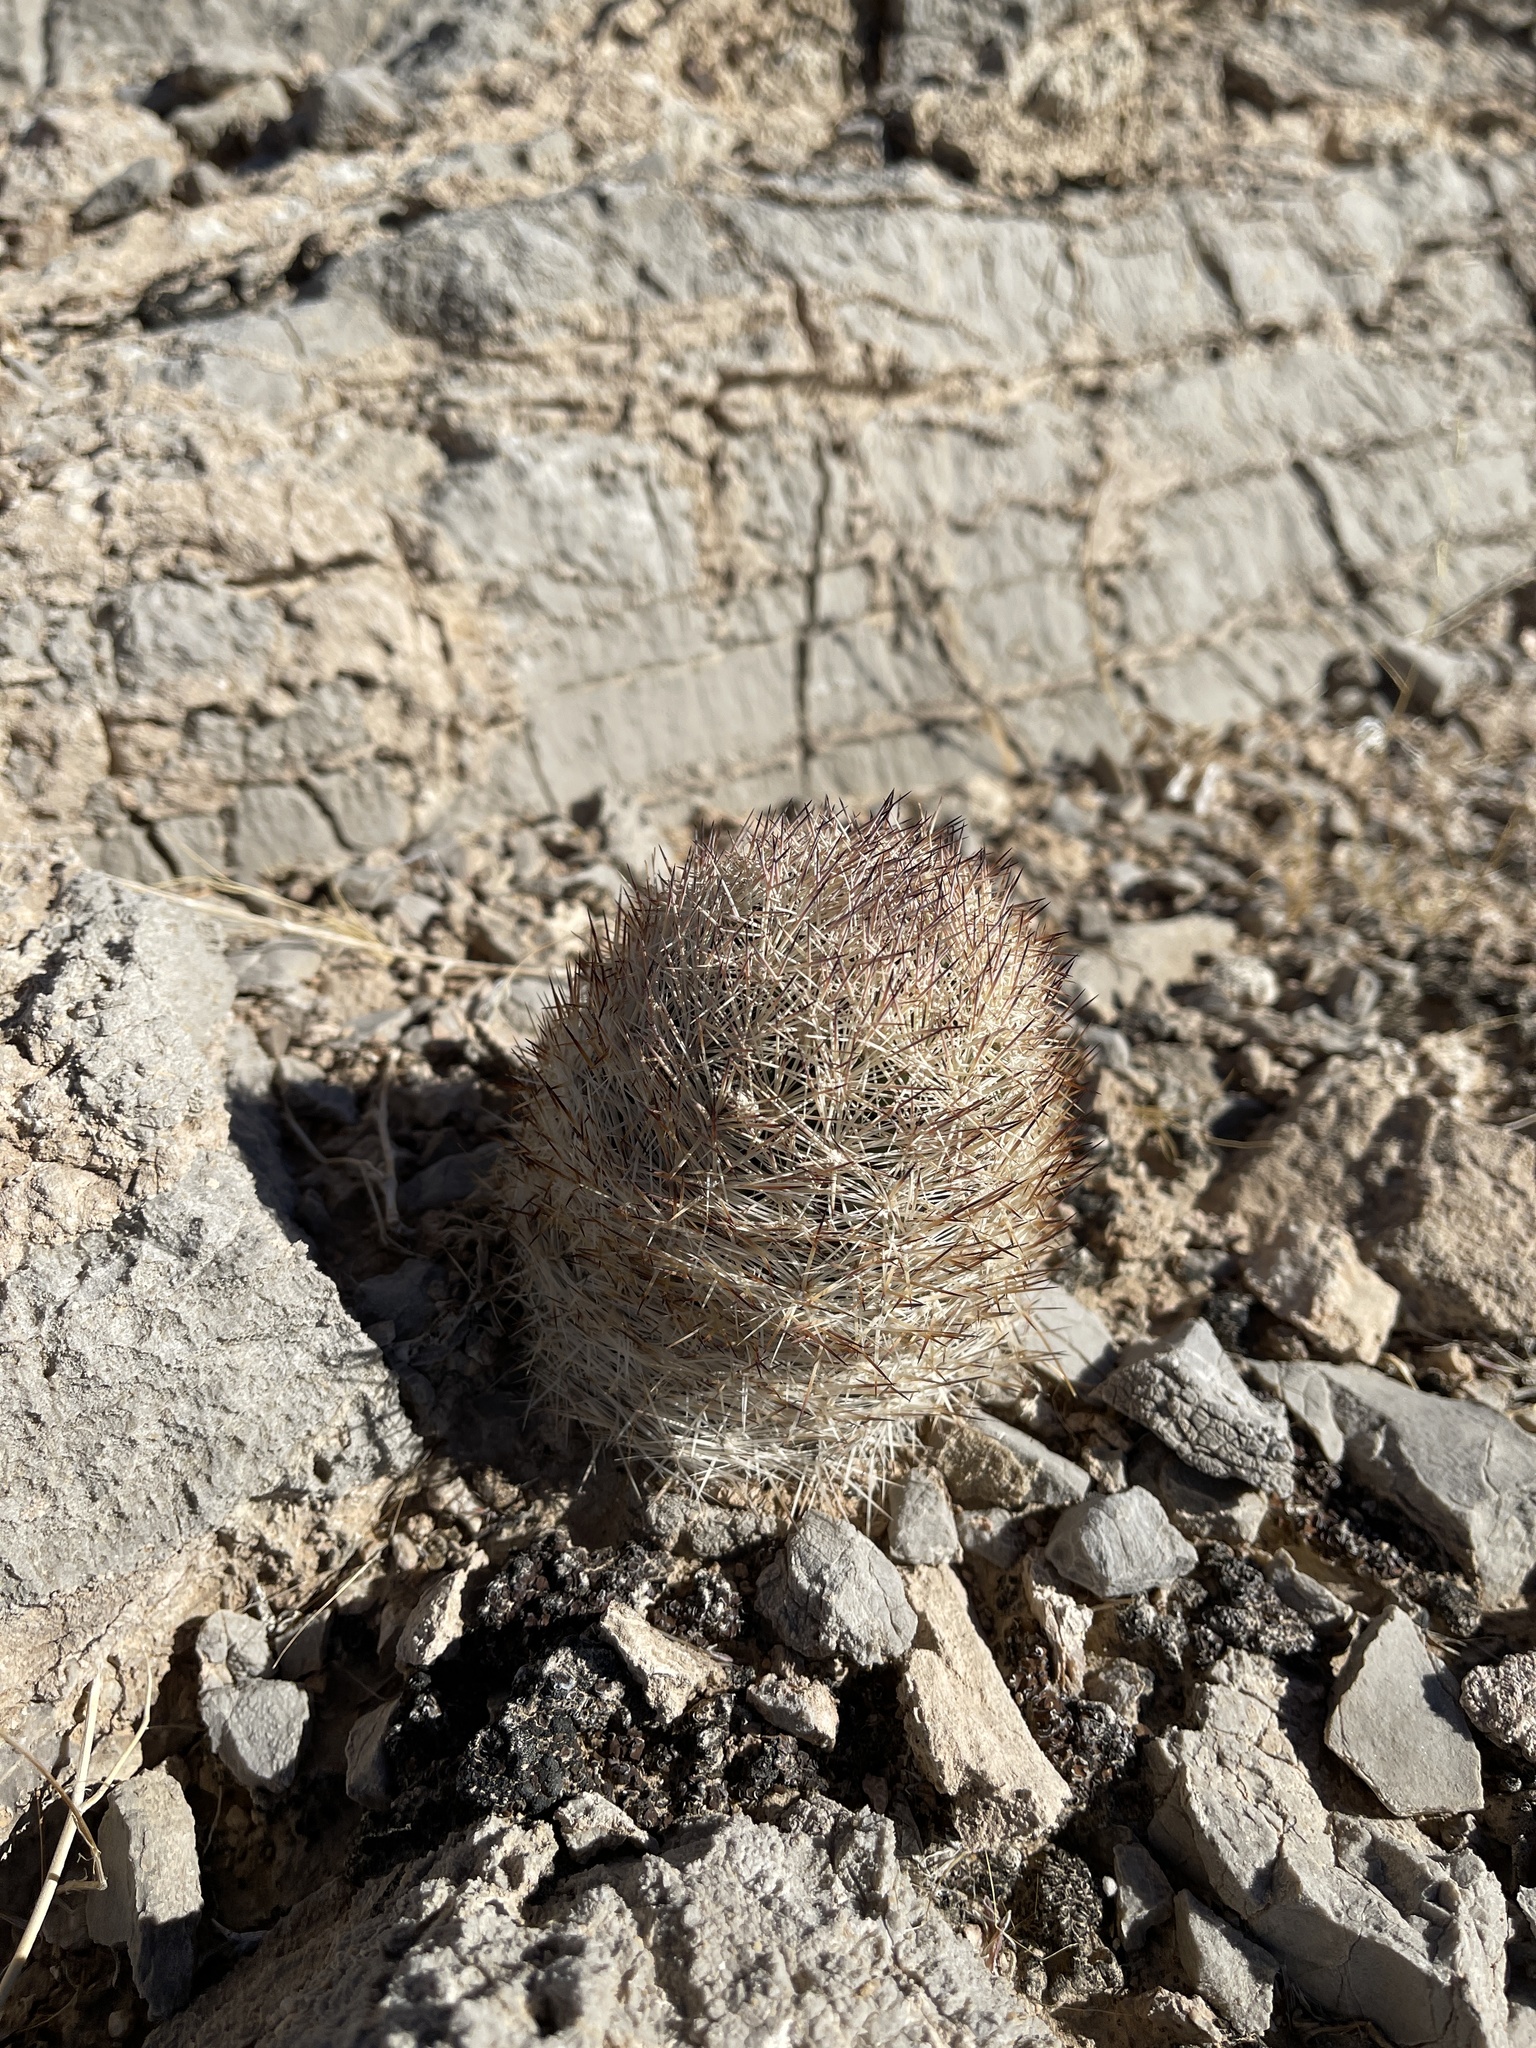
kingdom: Plantae
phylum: Tracheophyta
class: Magnoliopsida
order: Caryophyllales
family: Cactaceae
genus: Pelecyphora
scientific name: Pelecyphora dasyacantha
